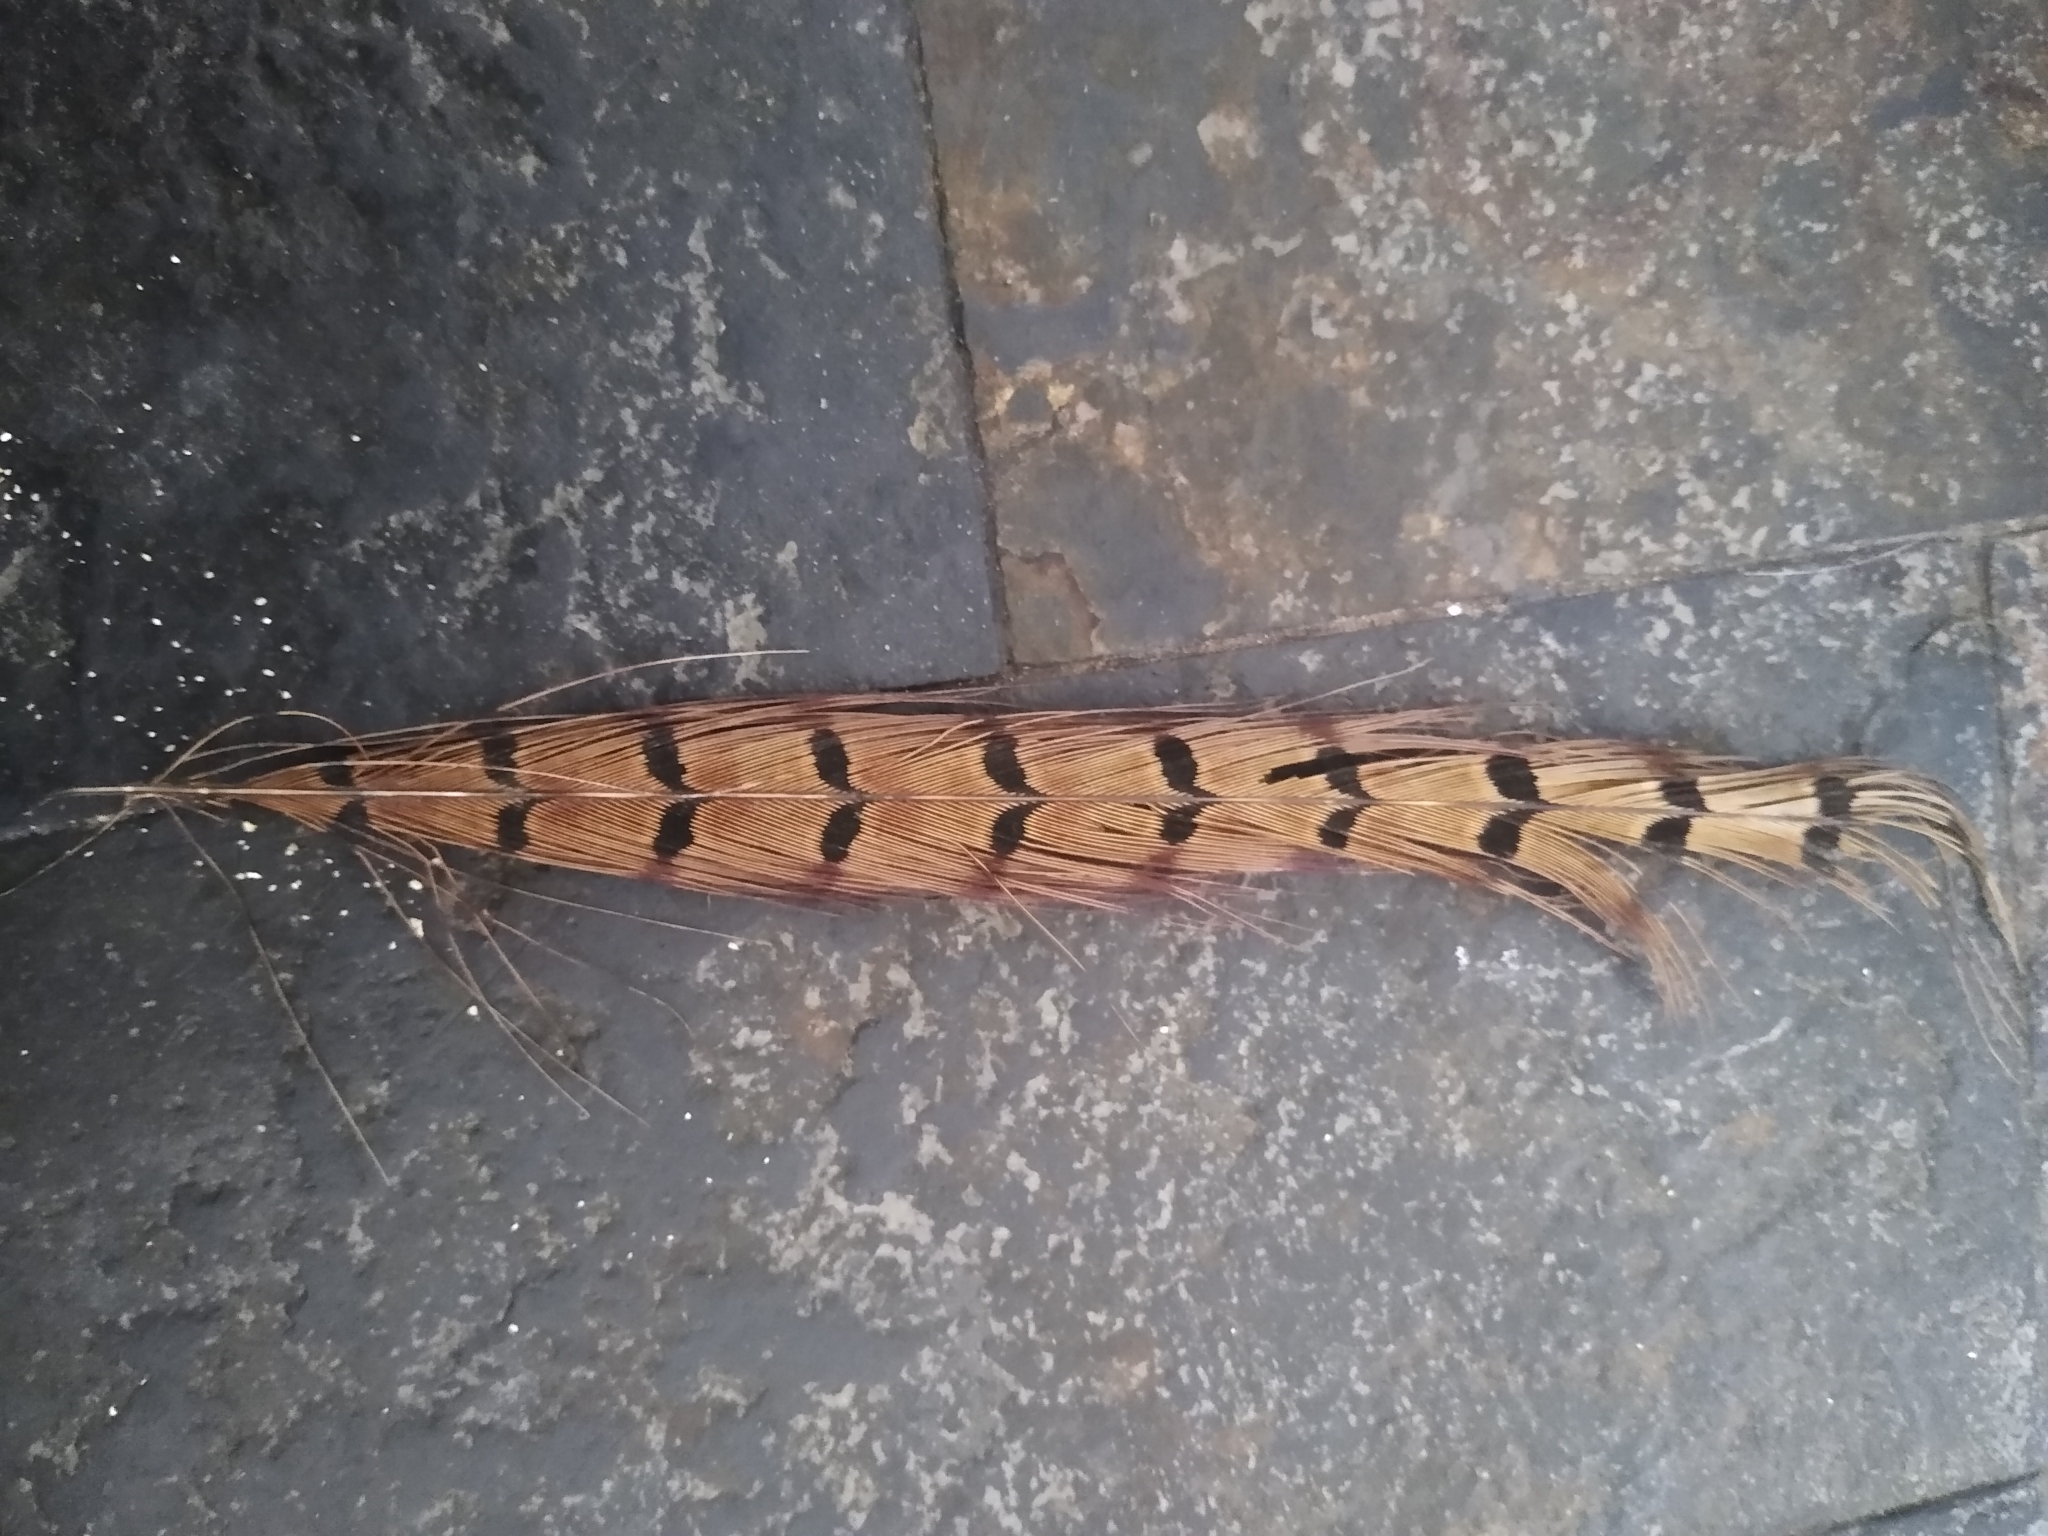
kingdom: Animalia
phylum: Chordata
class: Aves
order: Galliformes
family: Phasianidae
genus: Phasianus
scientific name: Phasianus colchicus
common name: Common pheasant
